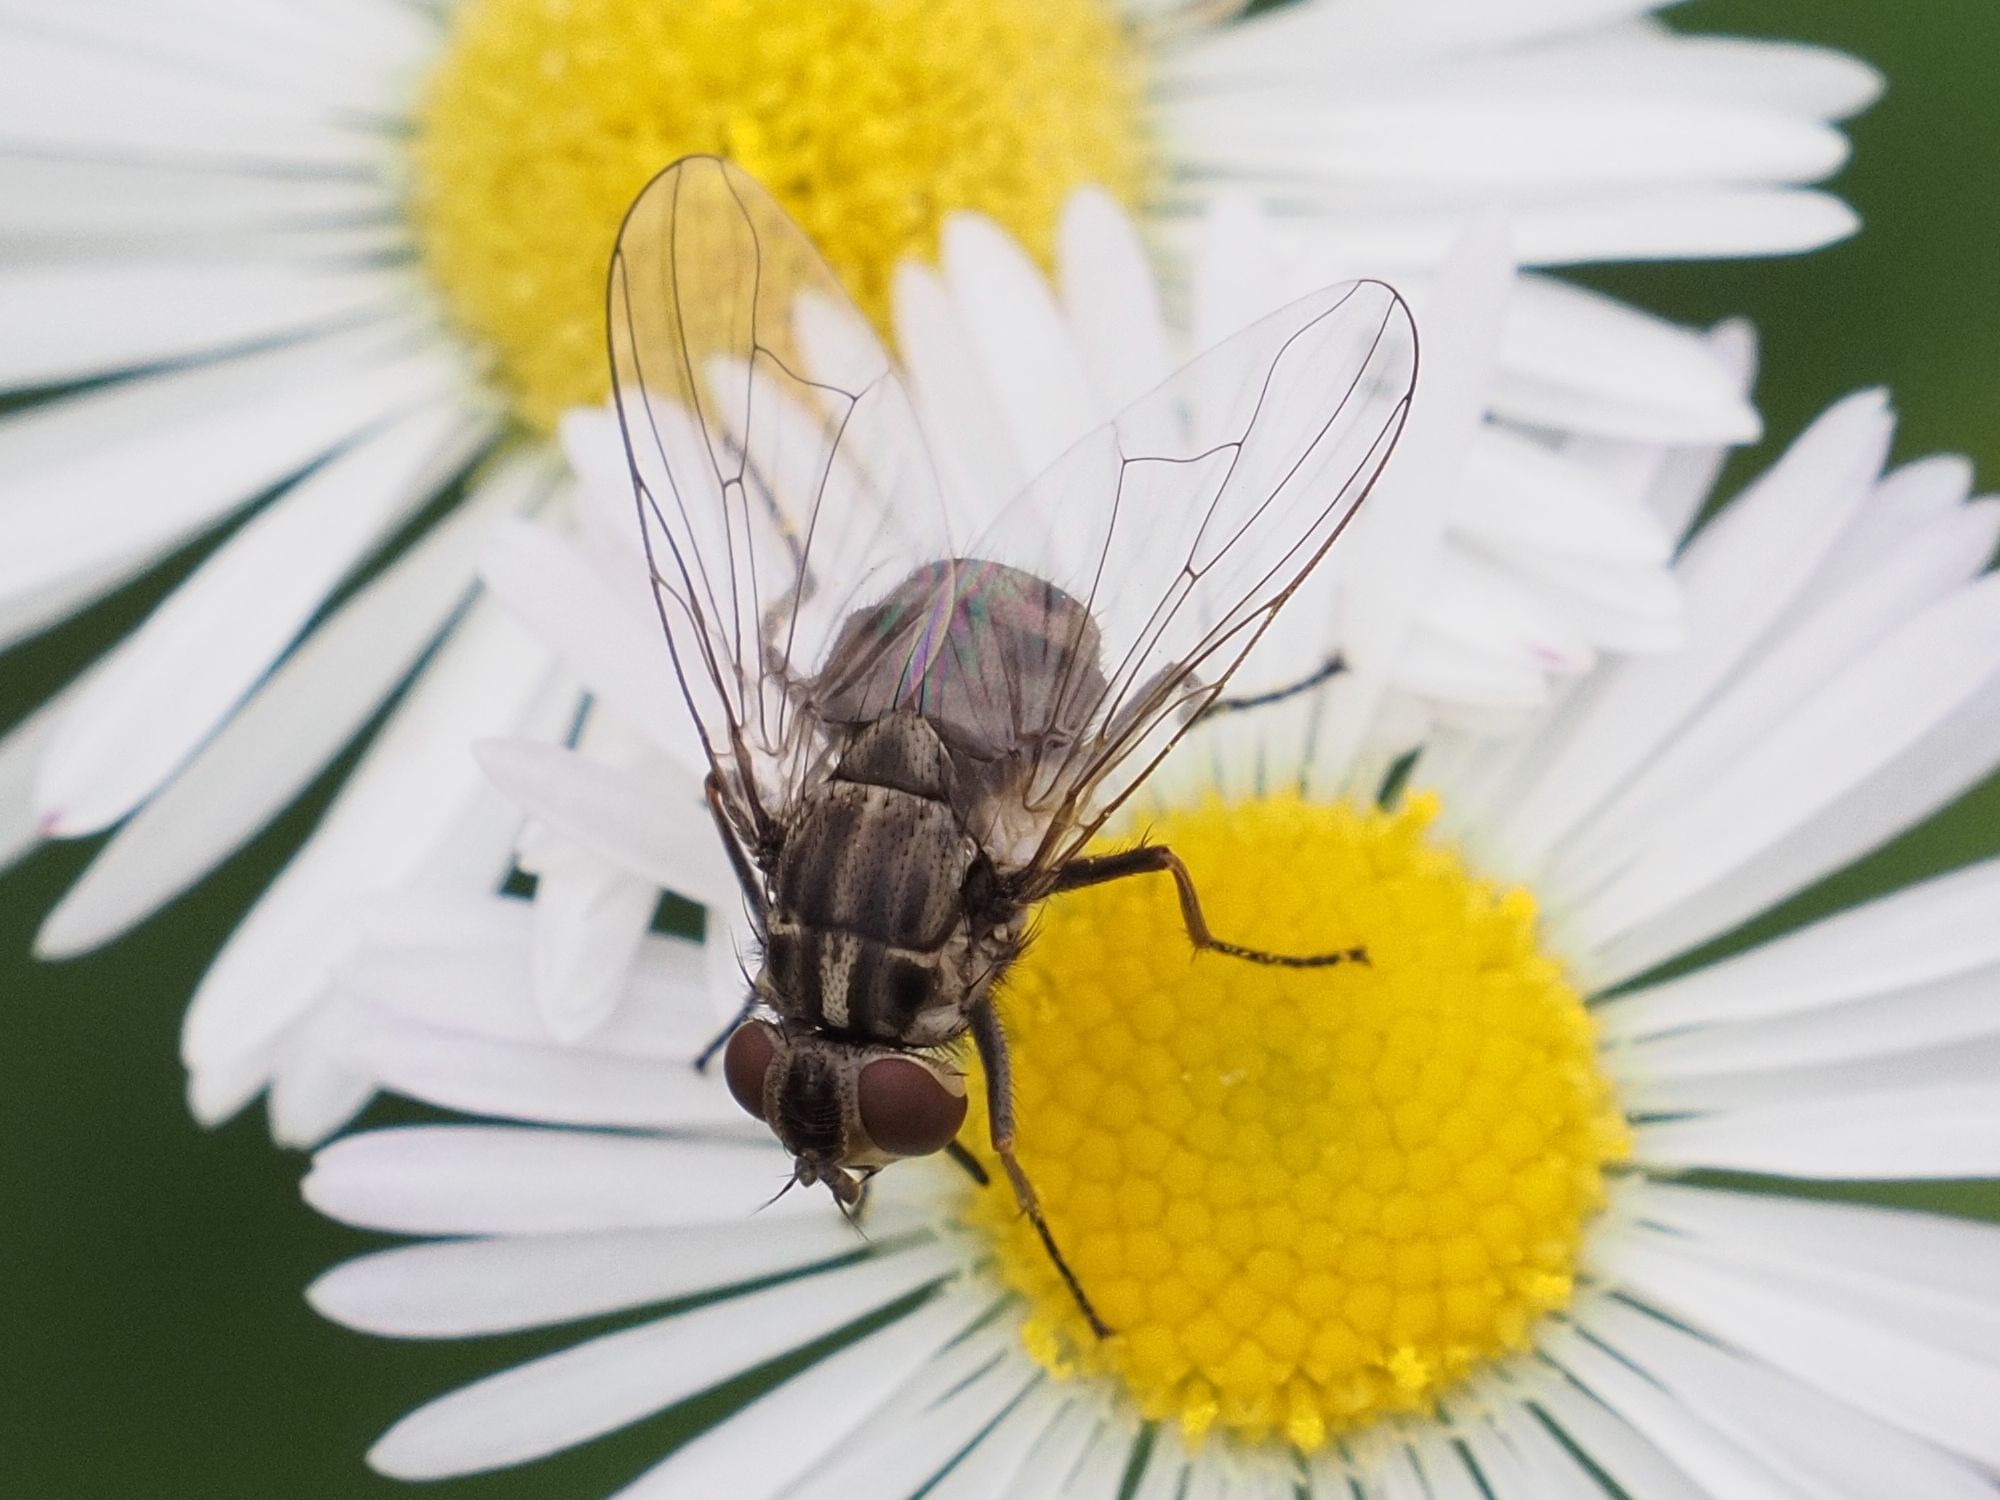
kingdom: Animalia
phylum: Arthropoda
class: Insecta
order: Diptera
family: Muscidae
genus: Stomoxys
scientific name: Stomoxys calcitrans
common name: Stable fly
